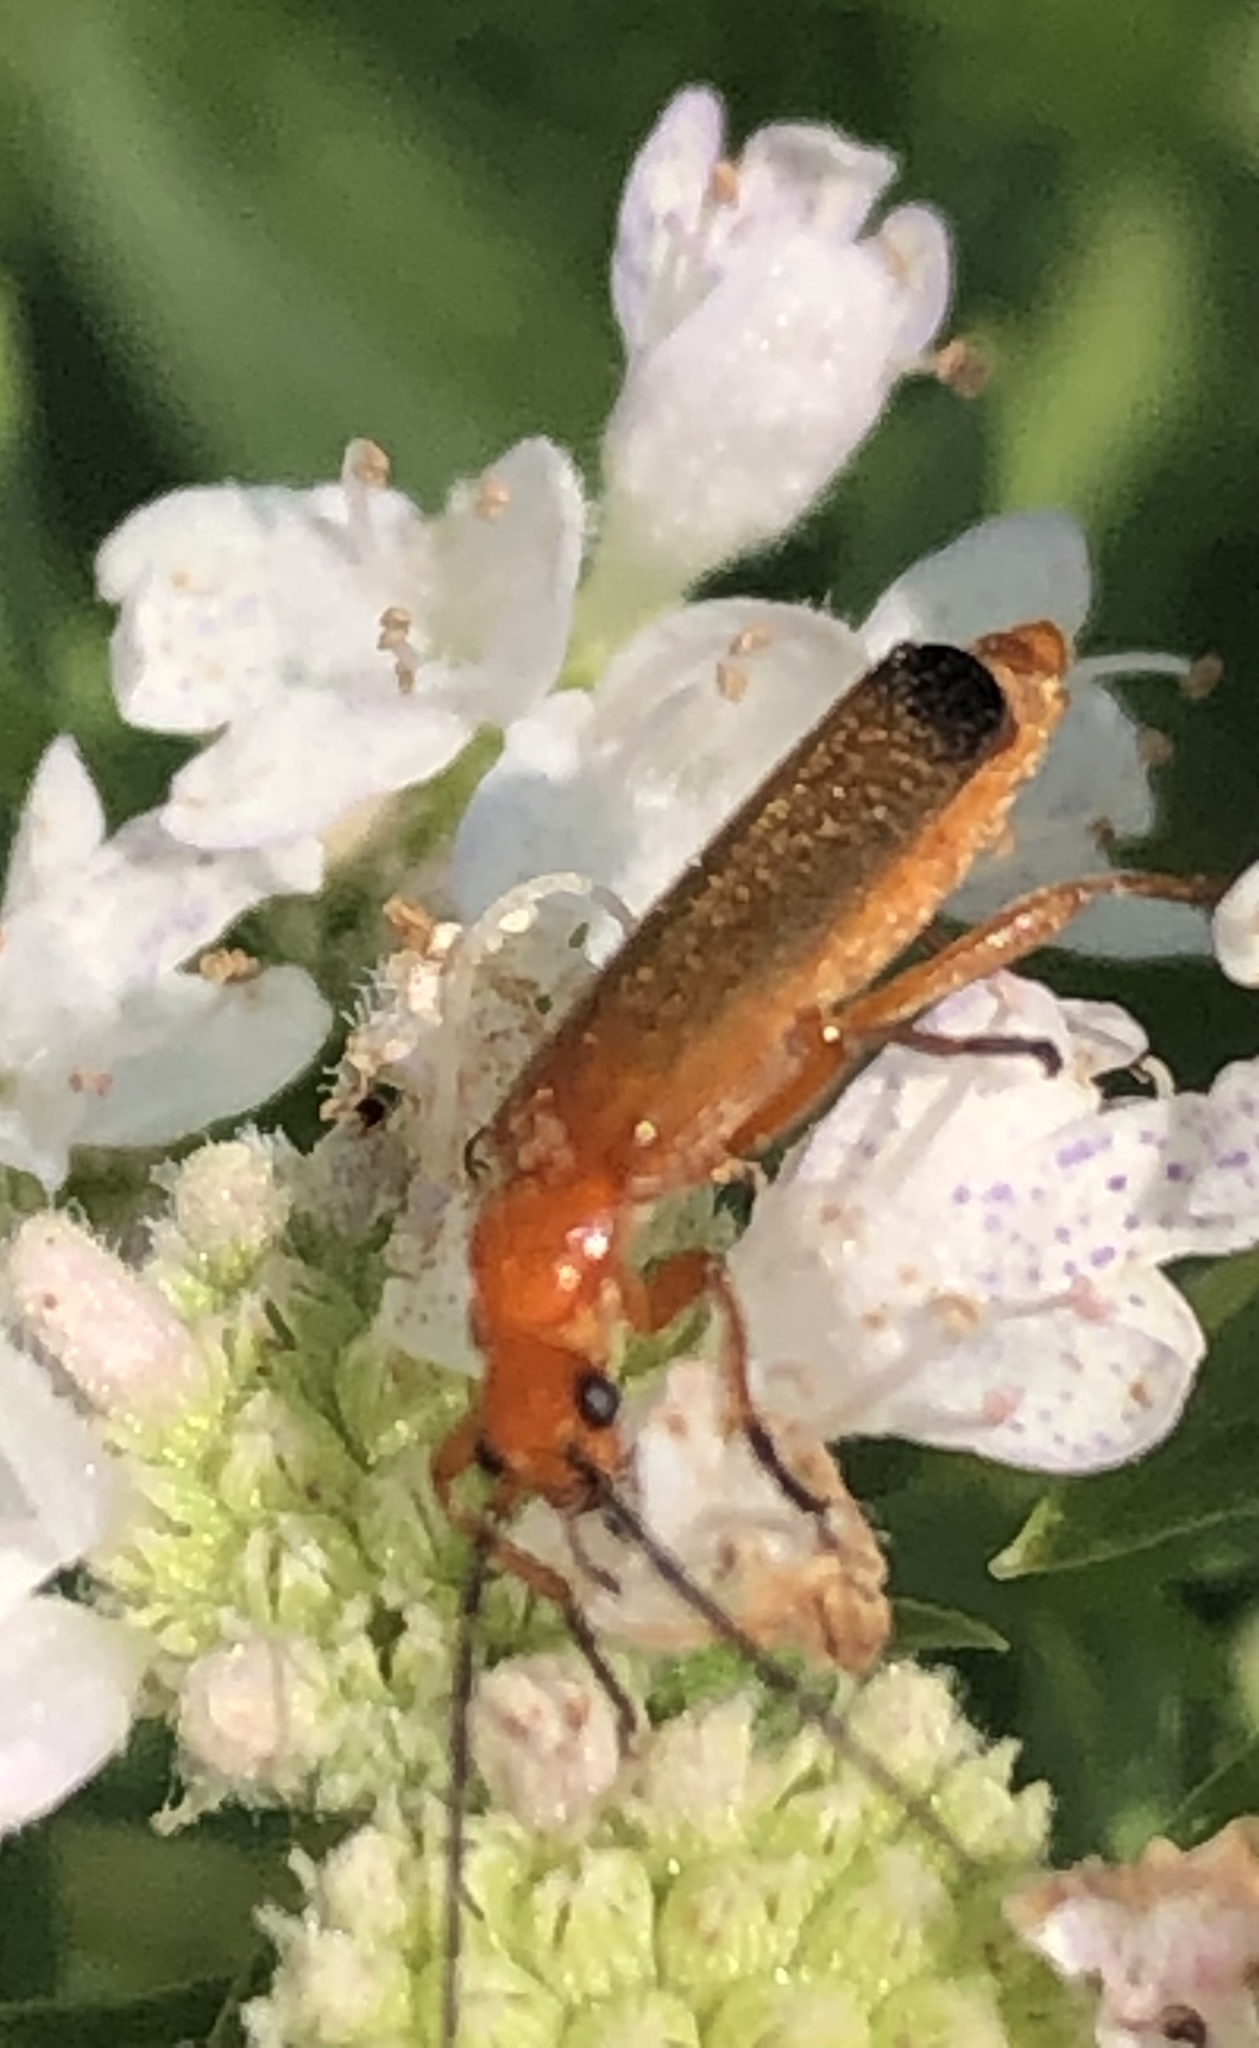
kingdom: Animalia
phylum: Arthropoda
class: Insecta
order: Coleoptera
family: Cantharidae
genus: Rhagonycha
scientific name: Rhagonycha fulva
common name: Common red soldier beetle
